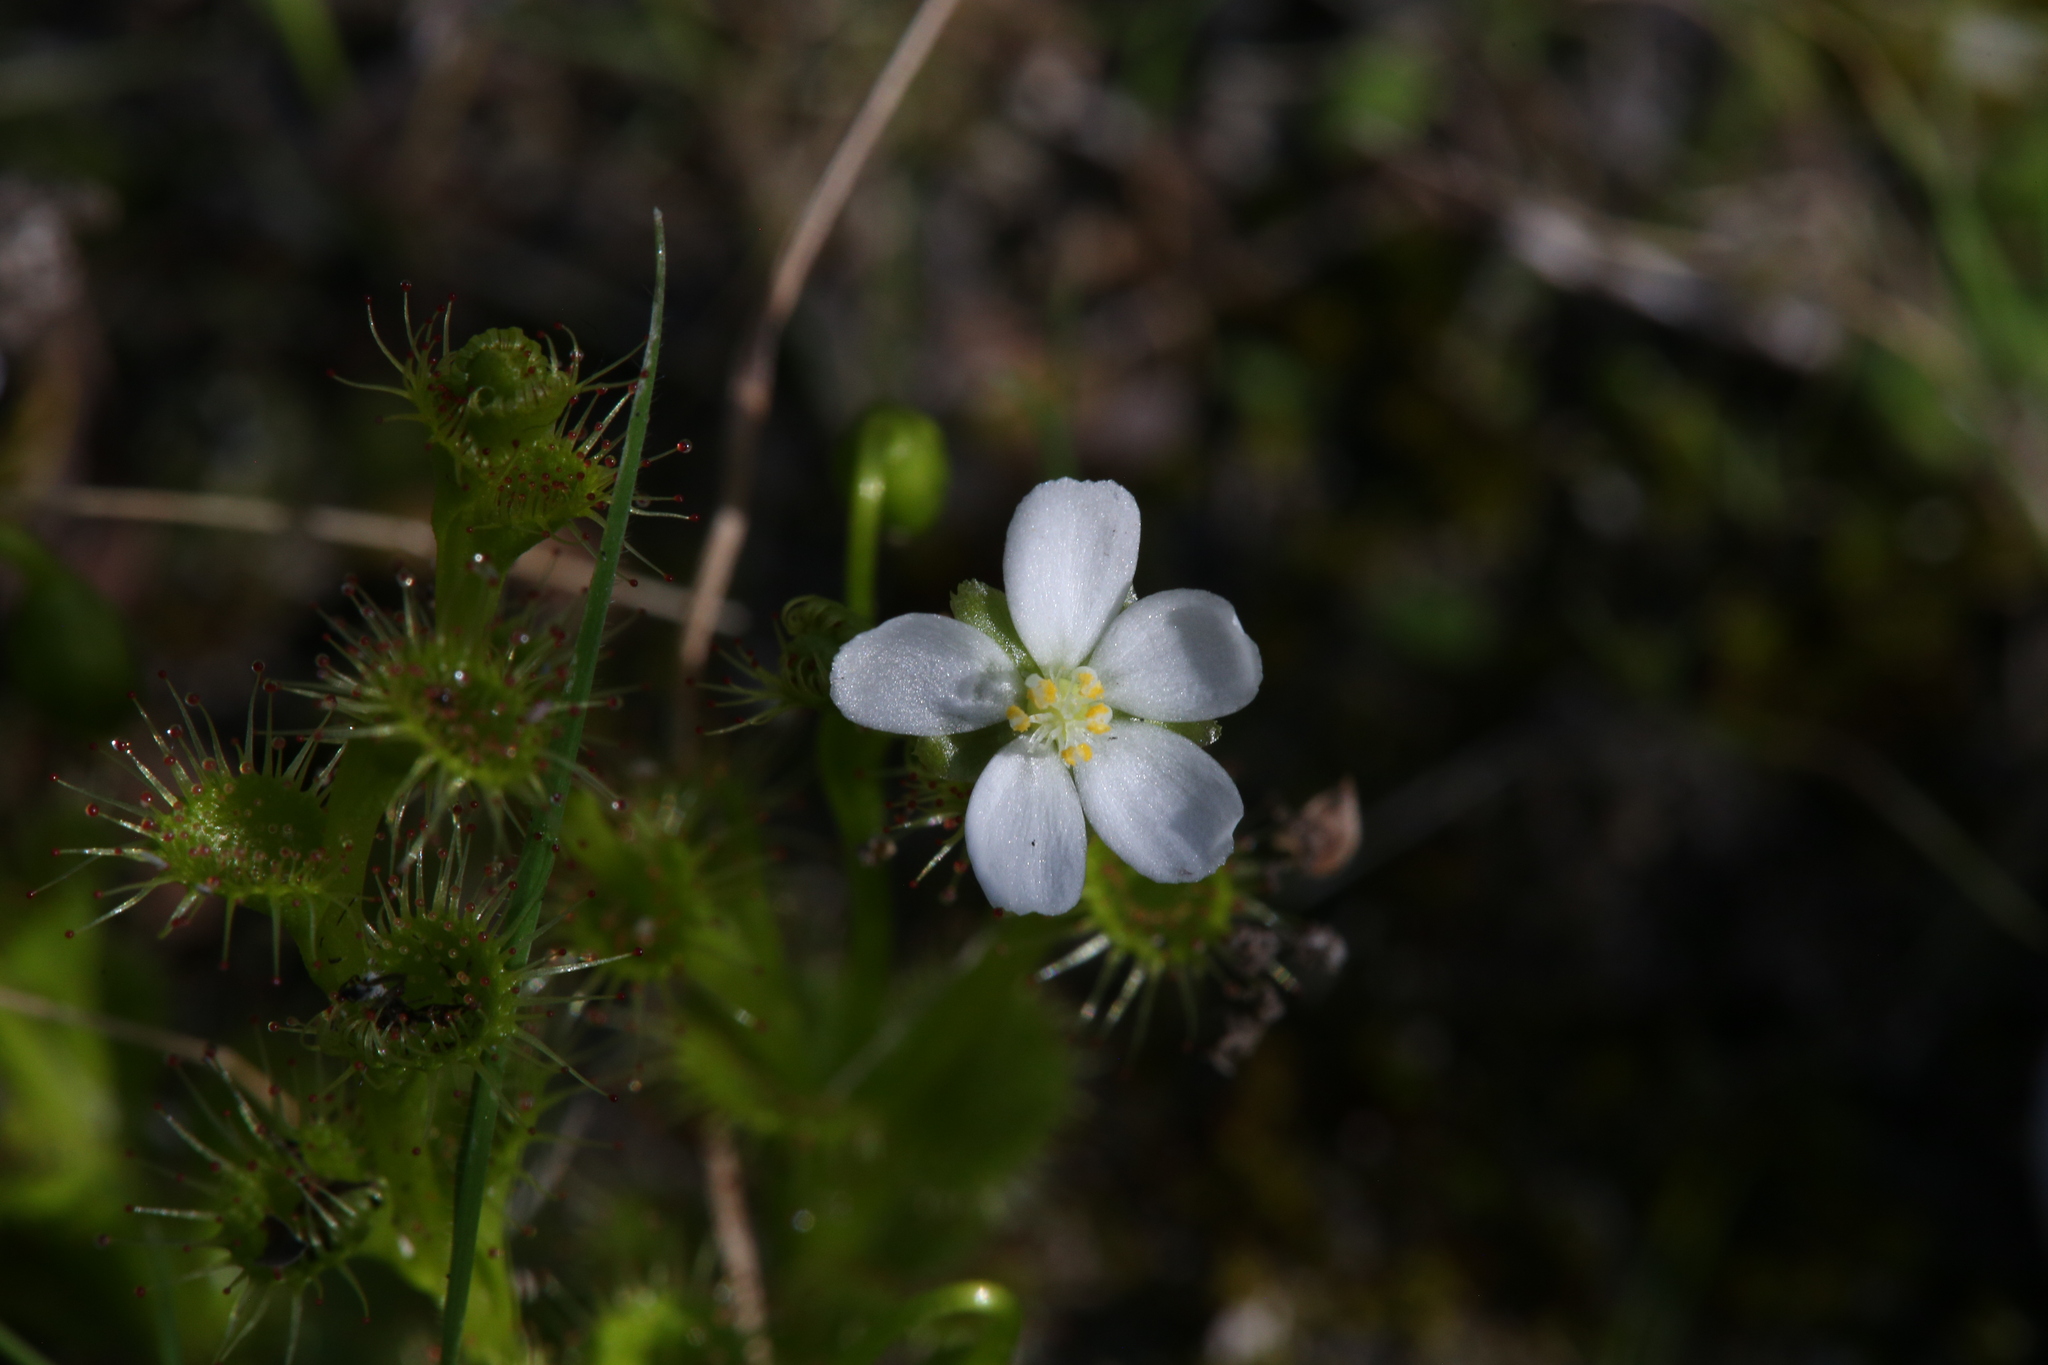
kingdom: Plantae
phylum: Tracheophyta
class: Magnoliopsida
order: Caryophyllales
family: Droseraceae
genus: Drosera
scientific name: Drosera ramellosa
